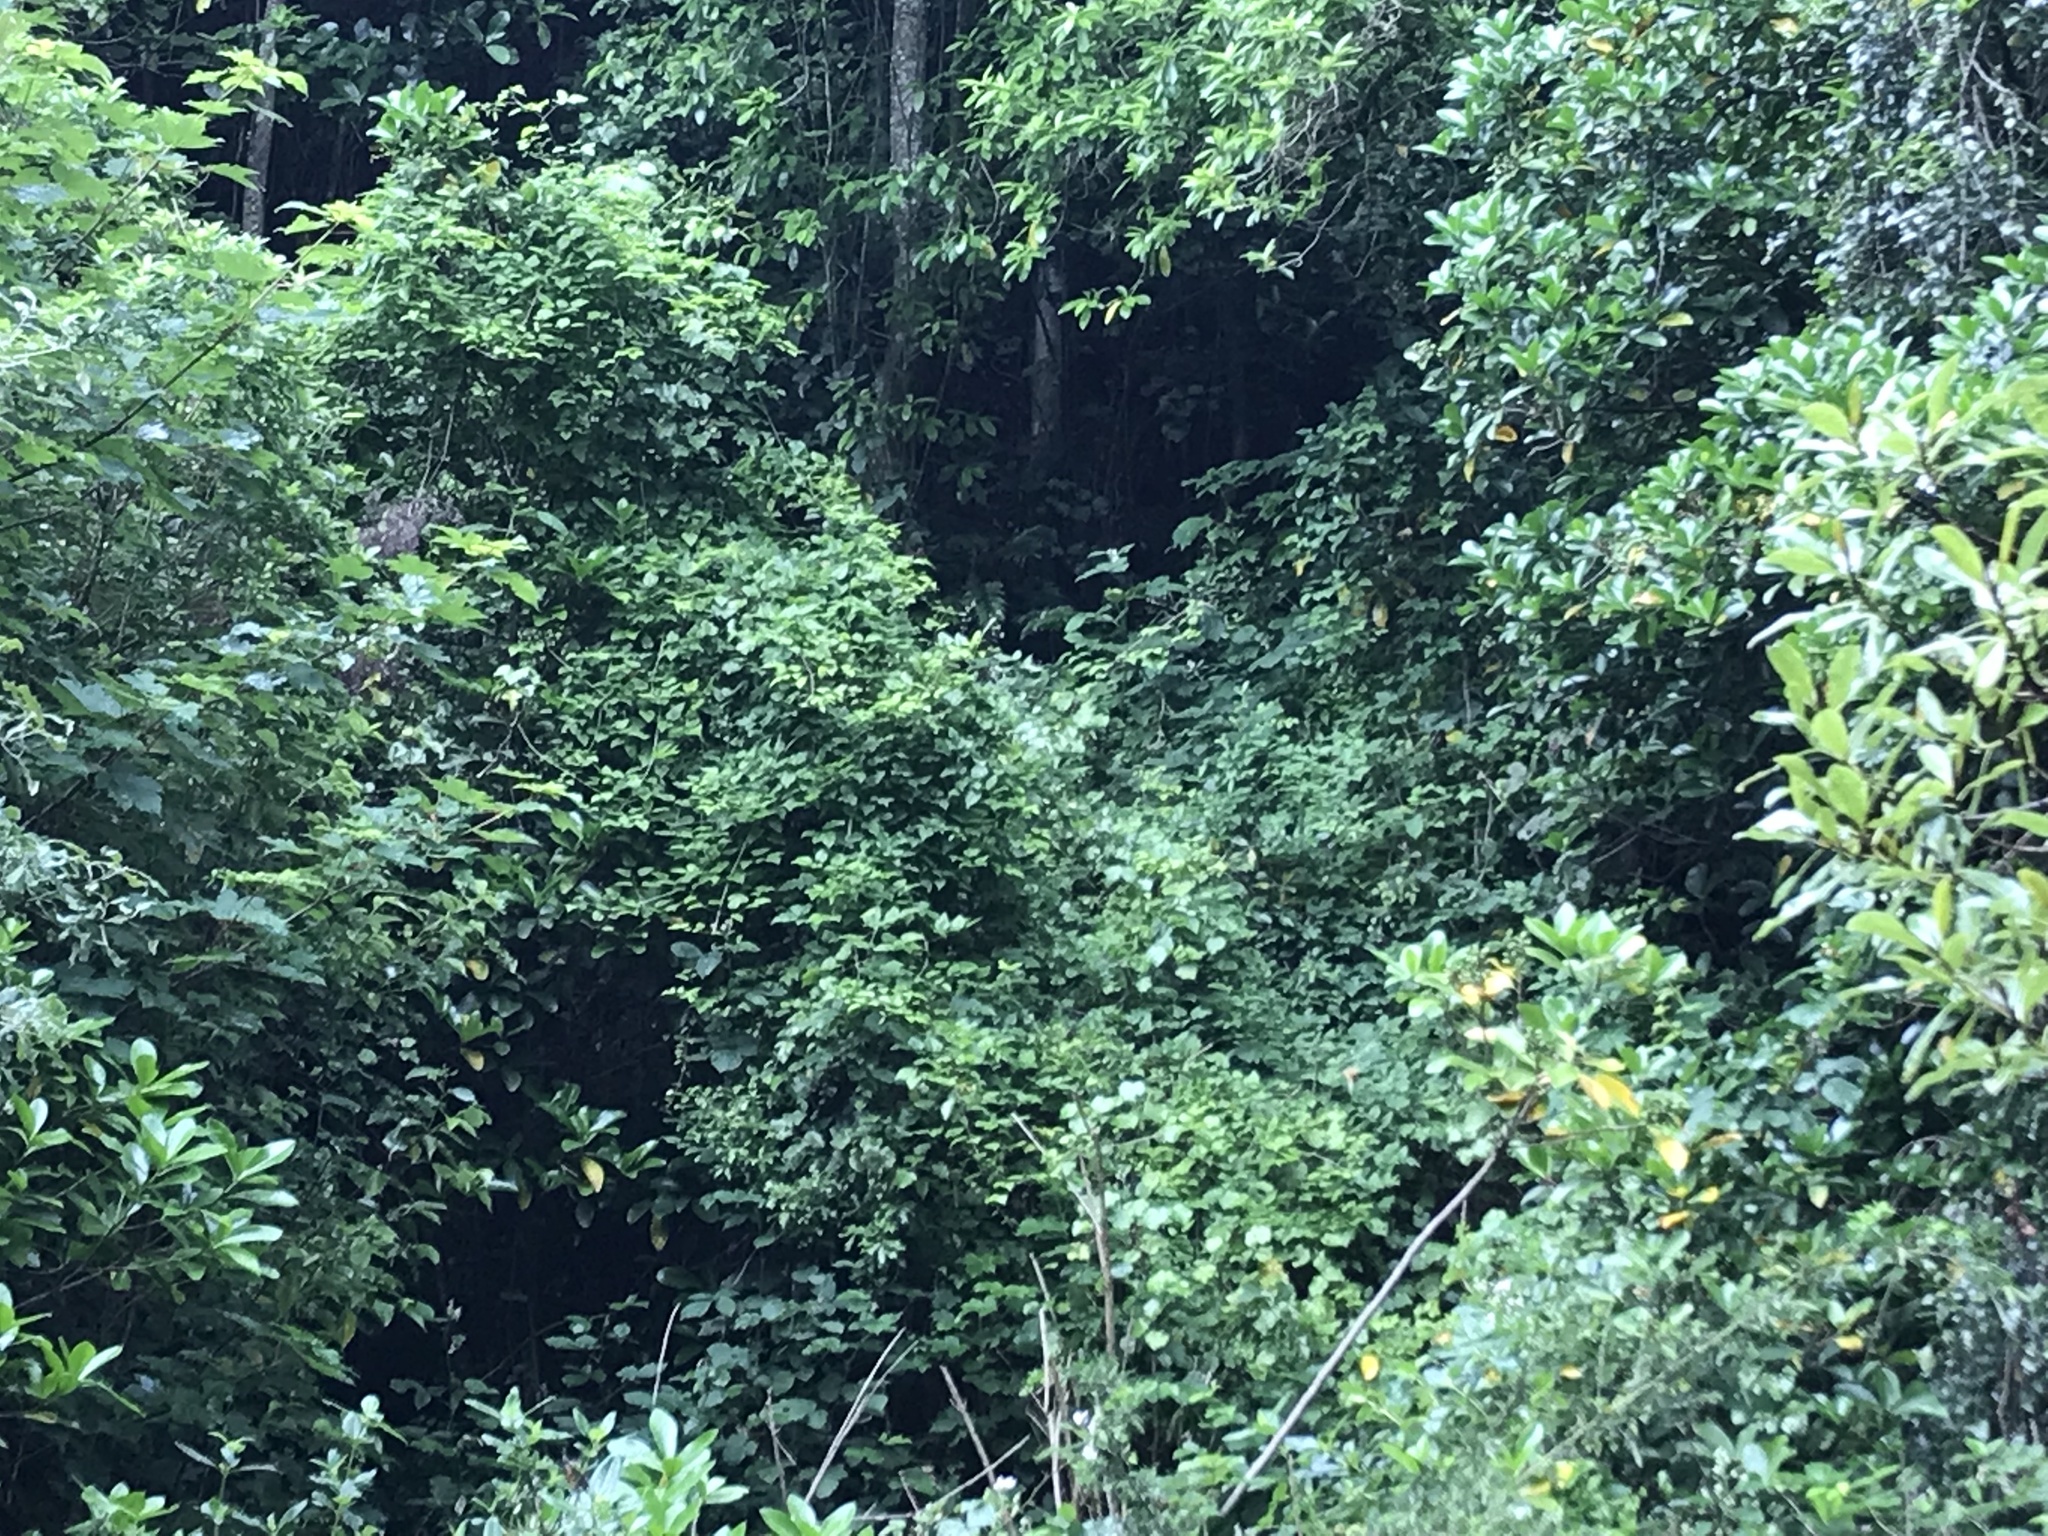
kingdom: Plantae
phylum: Tracheophyta
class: Magnoliopsida
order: Ranunculales
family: Ranunculaceae
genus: Clematis
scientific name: Clematis vitalba
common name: Evergreen clematis
